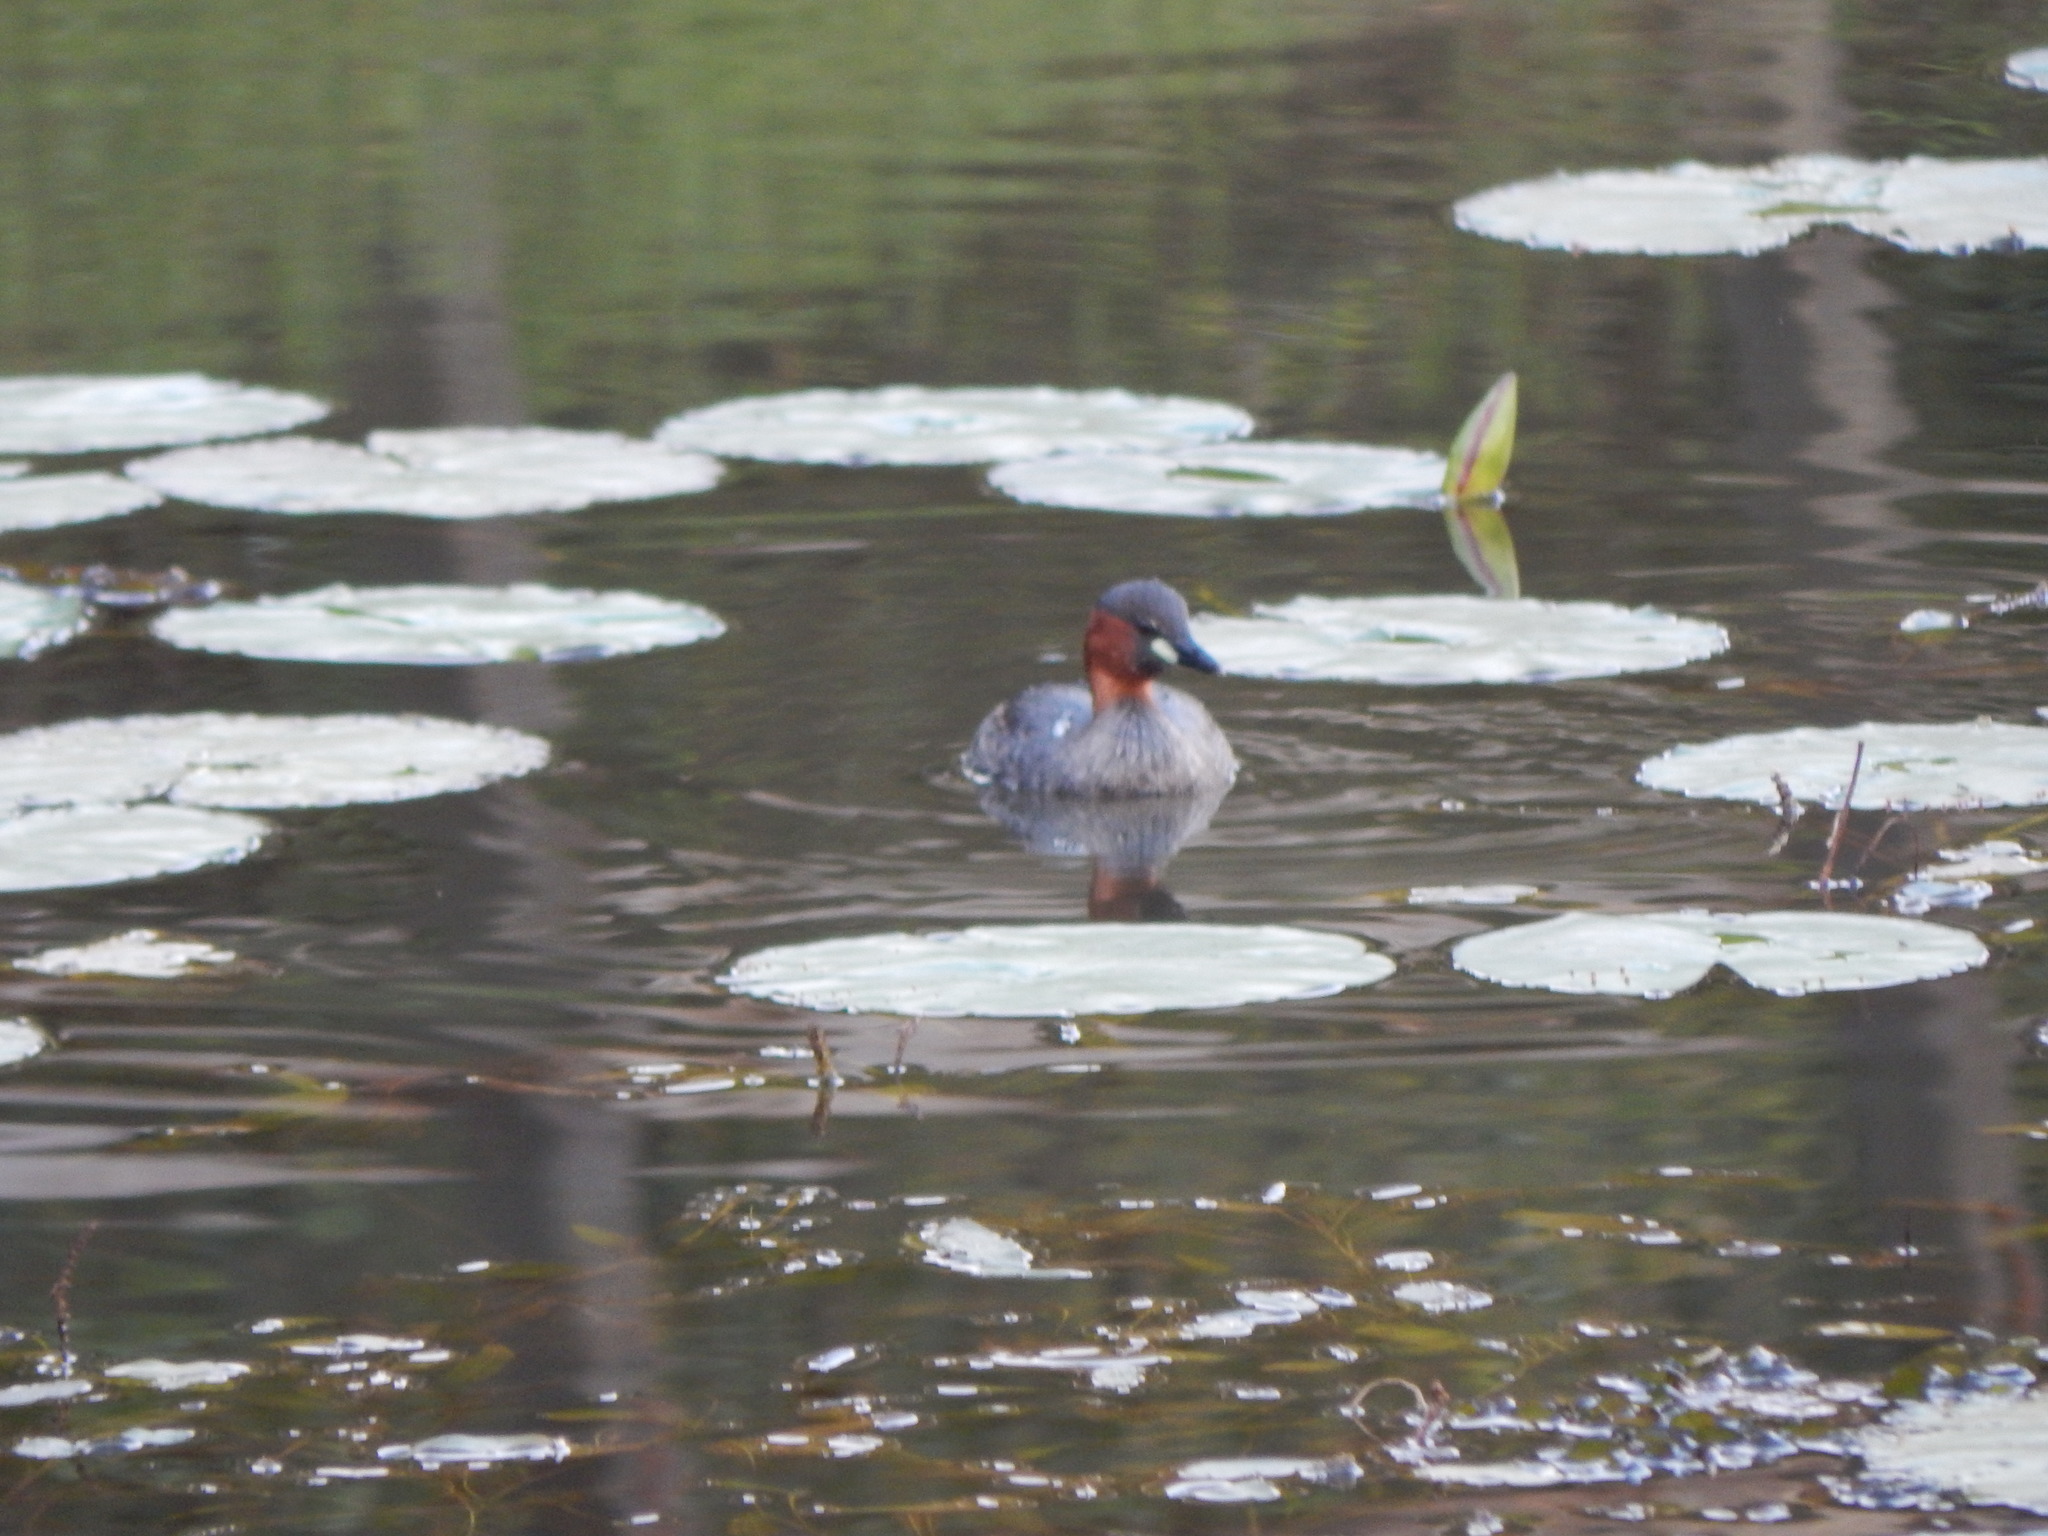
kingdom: Animalia
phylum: Chordata
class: Aves
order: Podicipediformes
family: Podicipedidae
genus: Tachybaptus
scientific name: Tachybaptus ruficollis
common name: Little grebe
